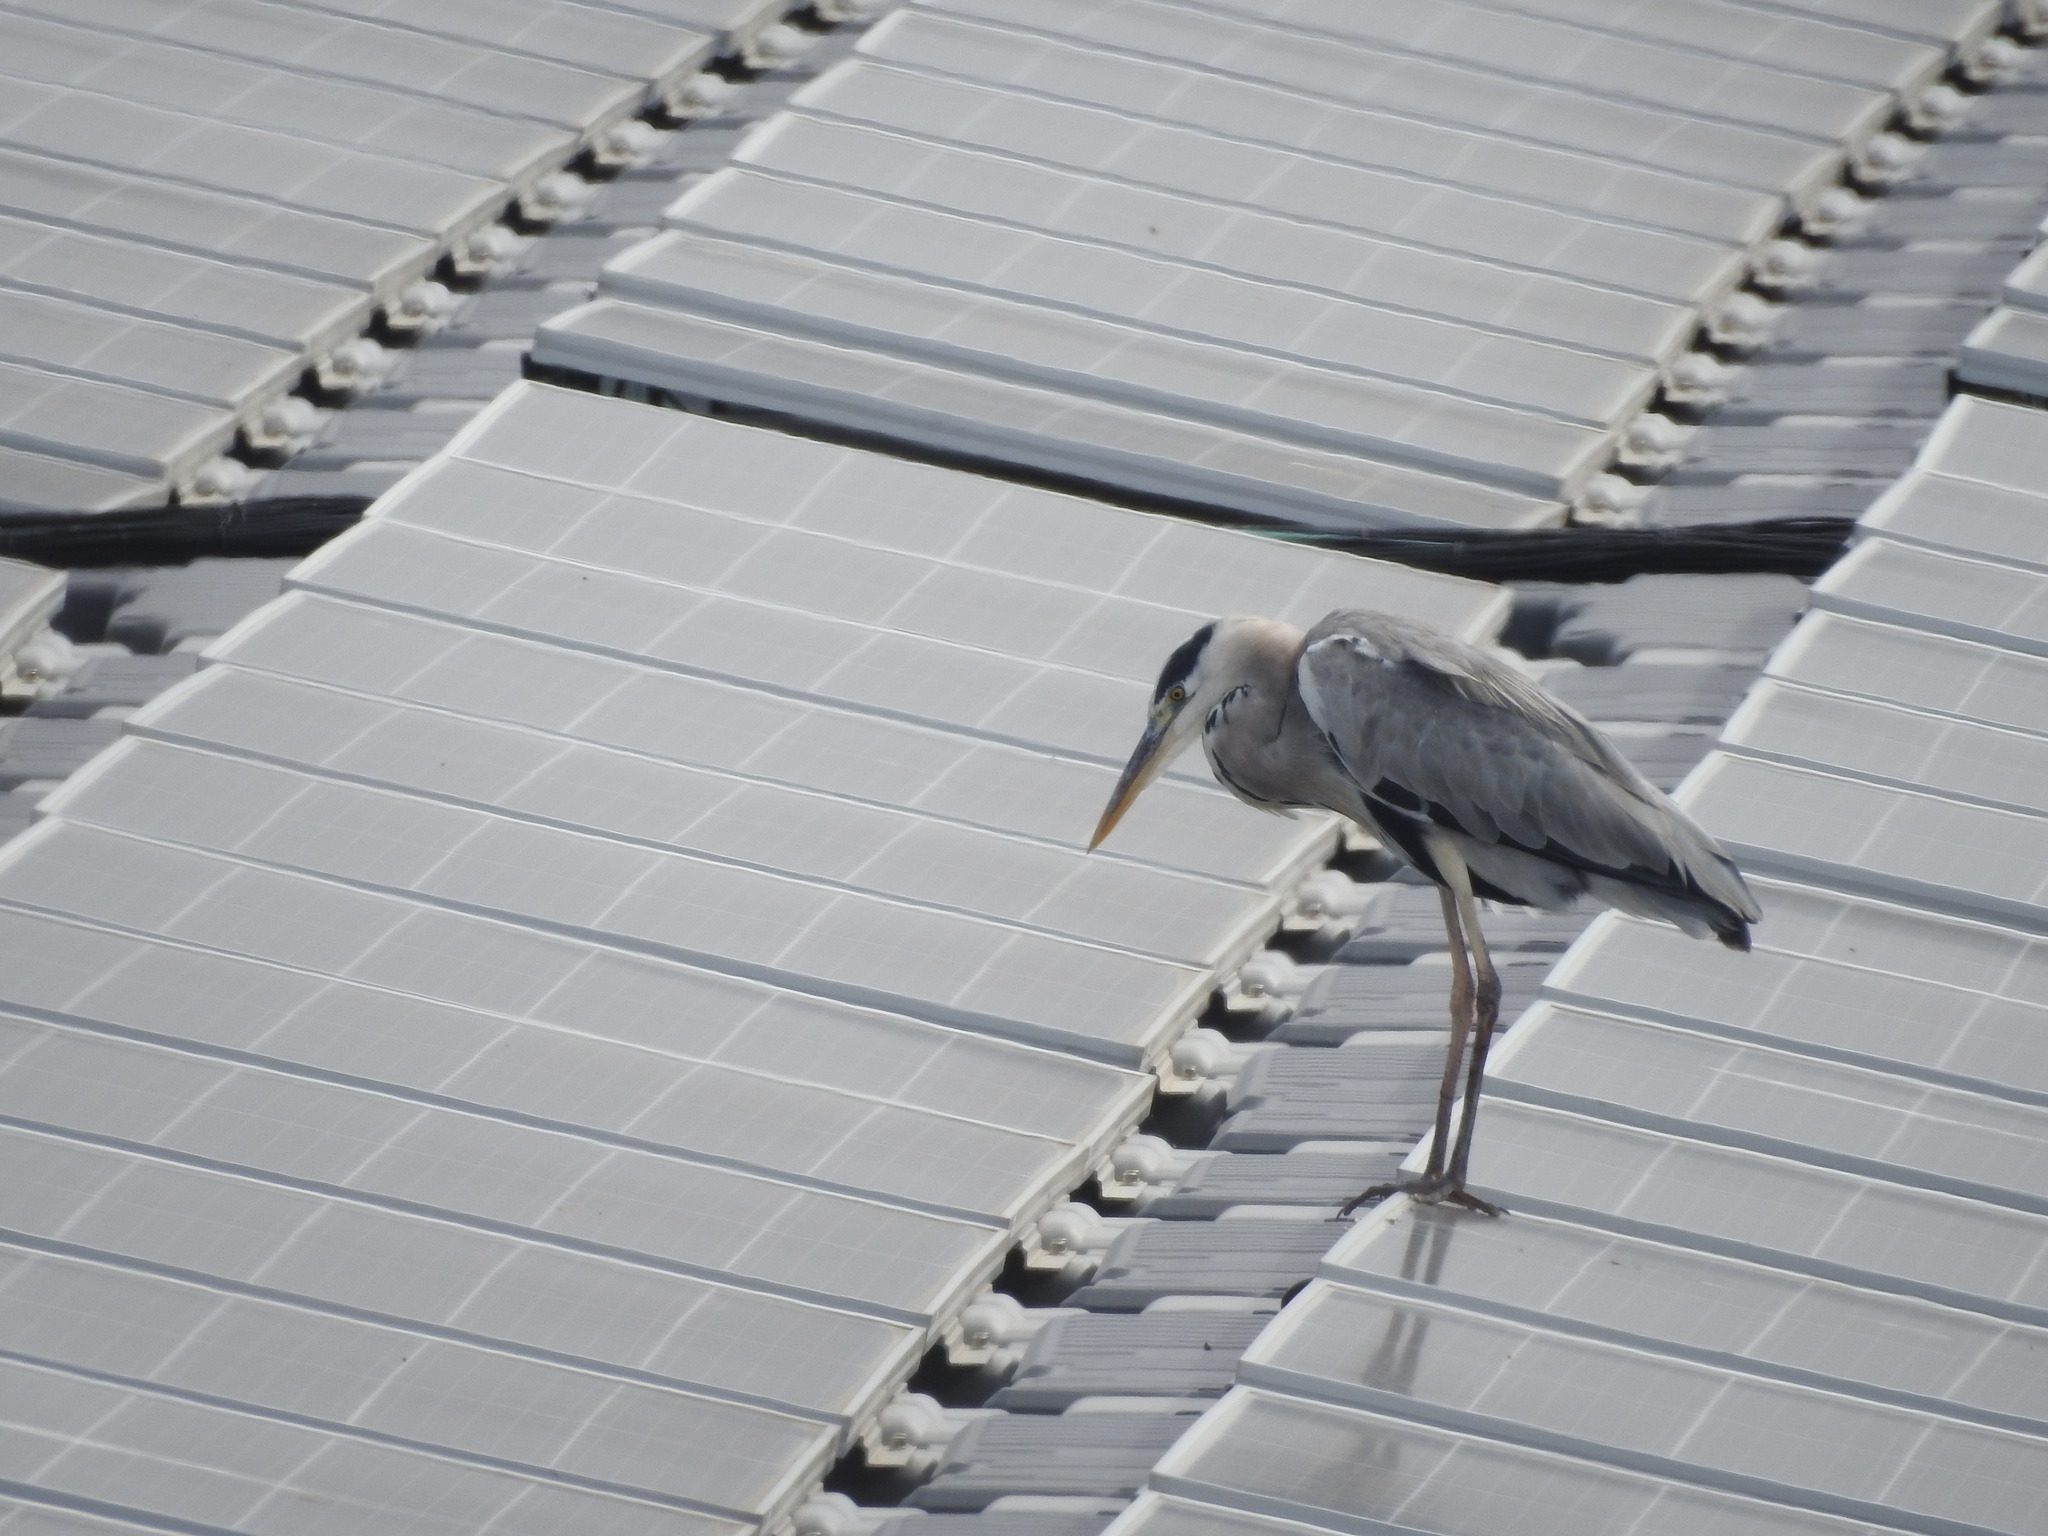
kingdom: Animalia
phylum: Chordata
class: Aves
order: Pelecaniformes
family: Ardeidae
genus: Ardea
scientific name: Ardea cinerea
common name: Grey heron
